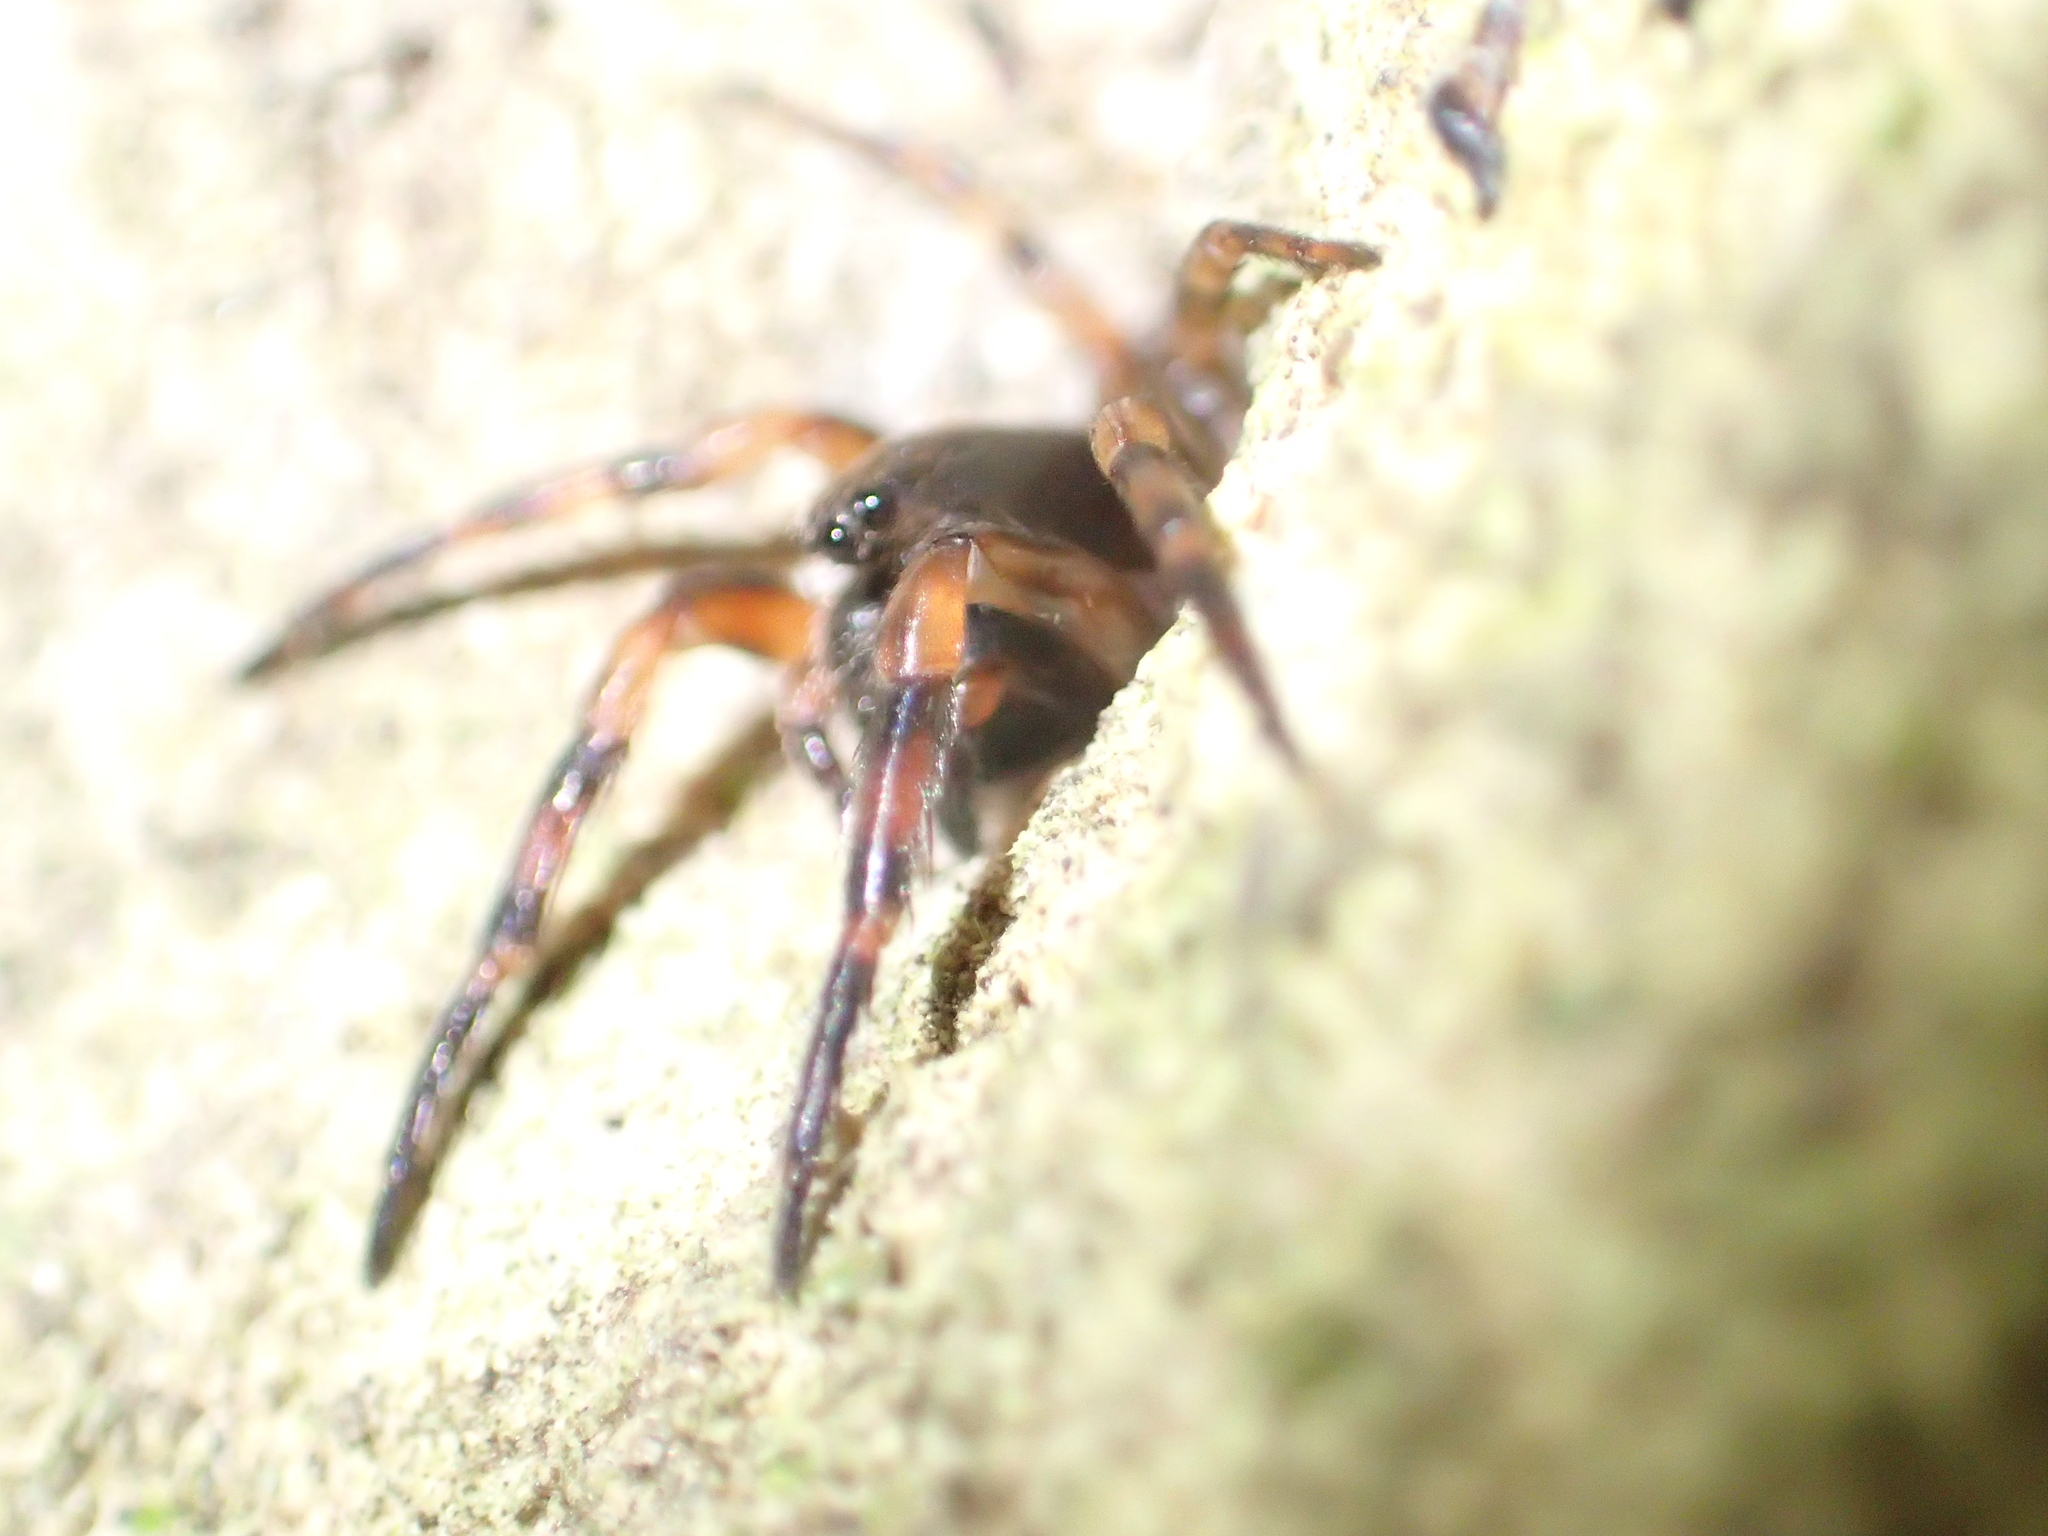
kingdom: Animalia
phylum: Arthropoda
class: Arachnida
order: Araneae
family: Cycloctenidae
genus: Plectophanes
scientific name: Plectophanes
